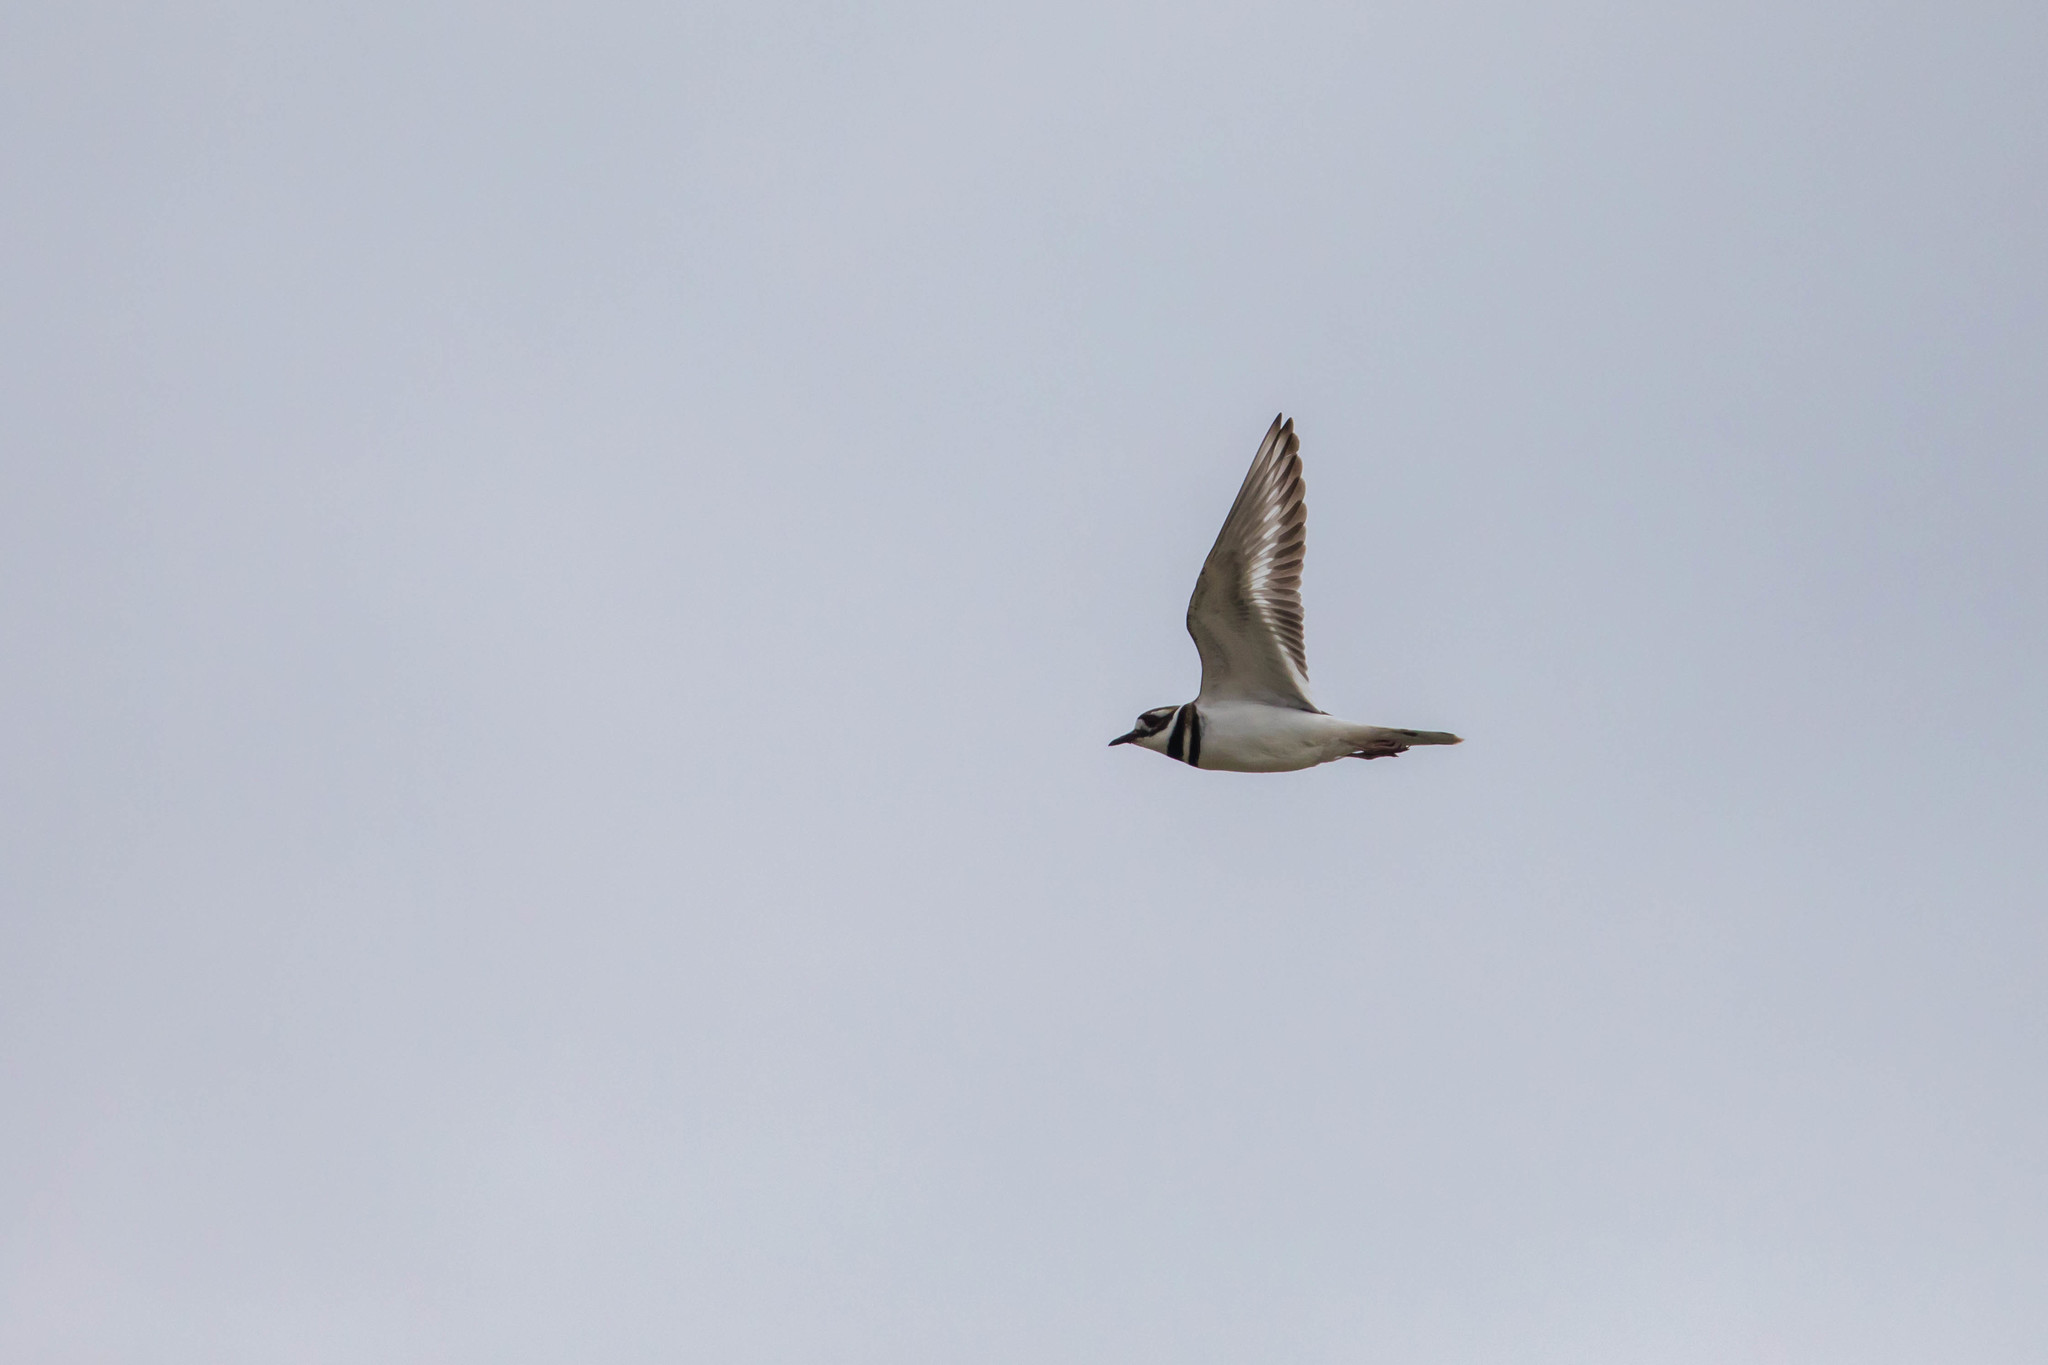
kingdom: Animalia
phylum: Chordata
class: Aves
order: Charadriiformes
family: Charadriidae
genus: Charadrius
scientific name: Charadrius vociferus
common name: Killdeer
